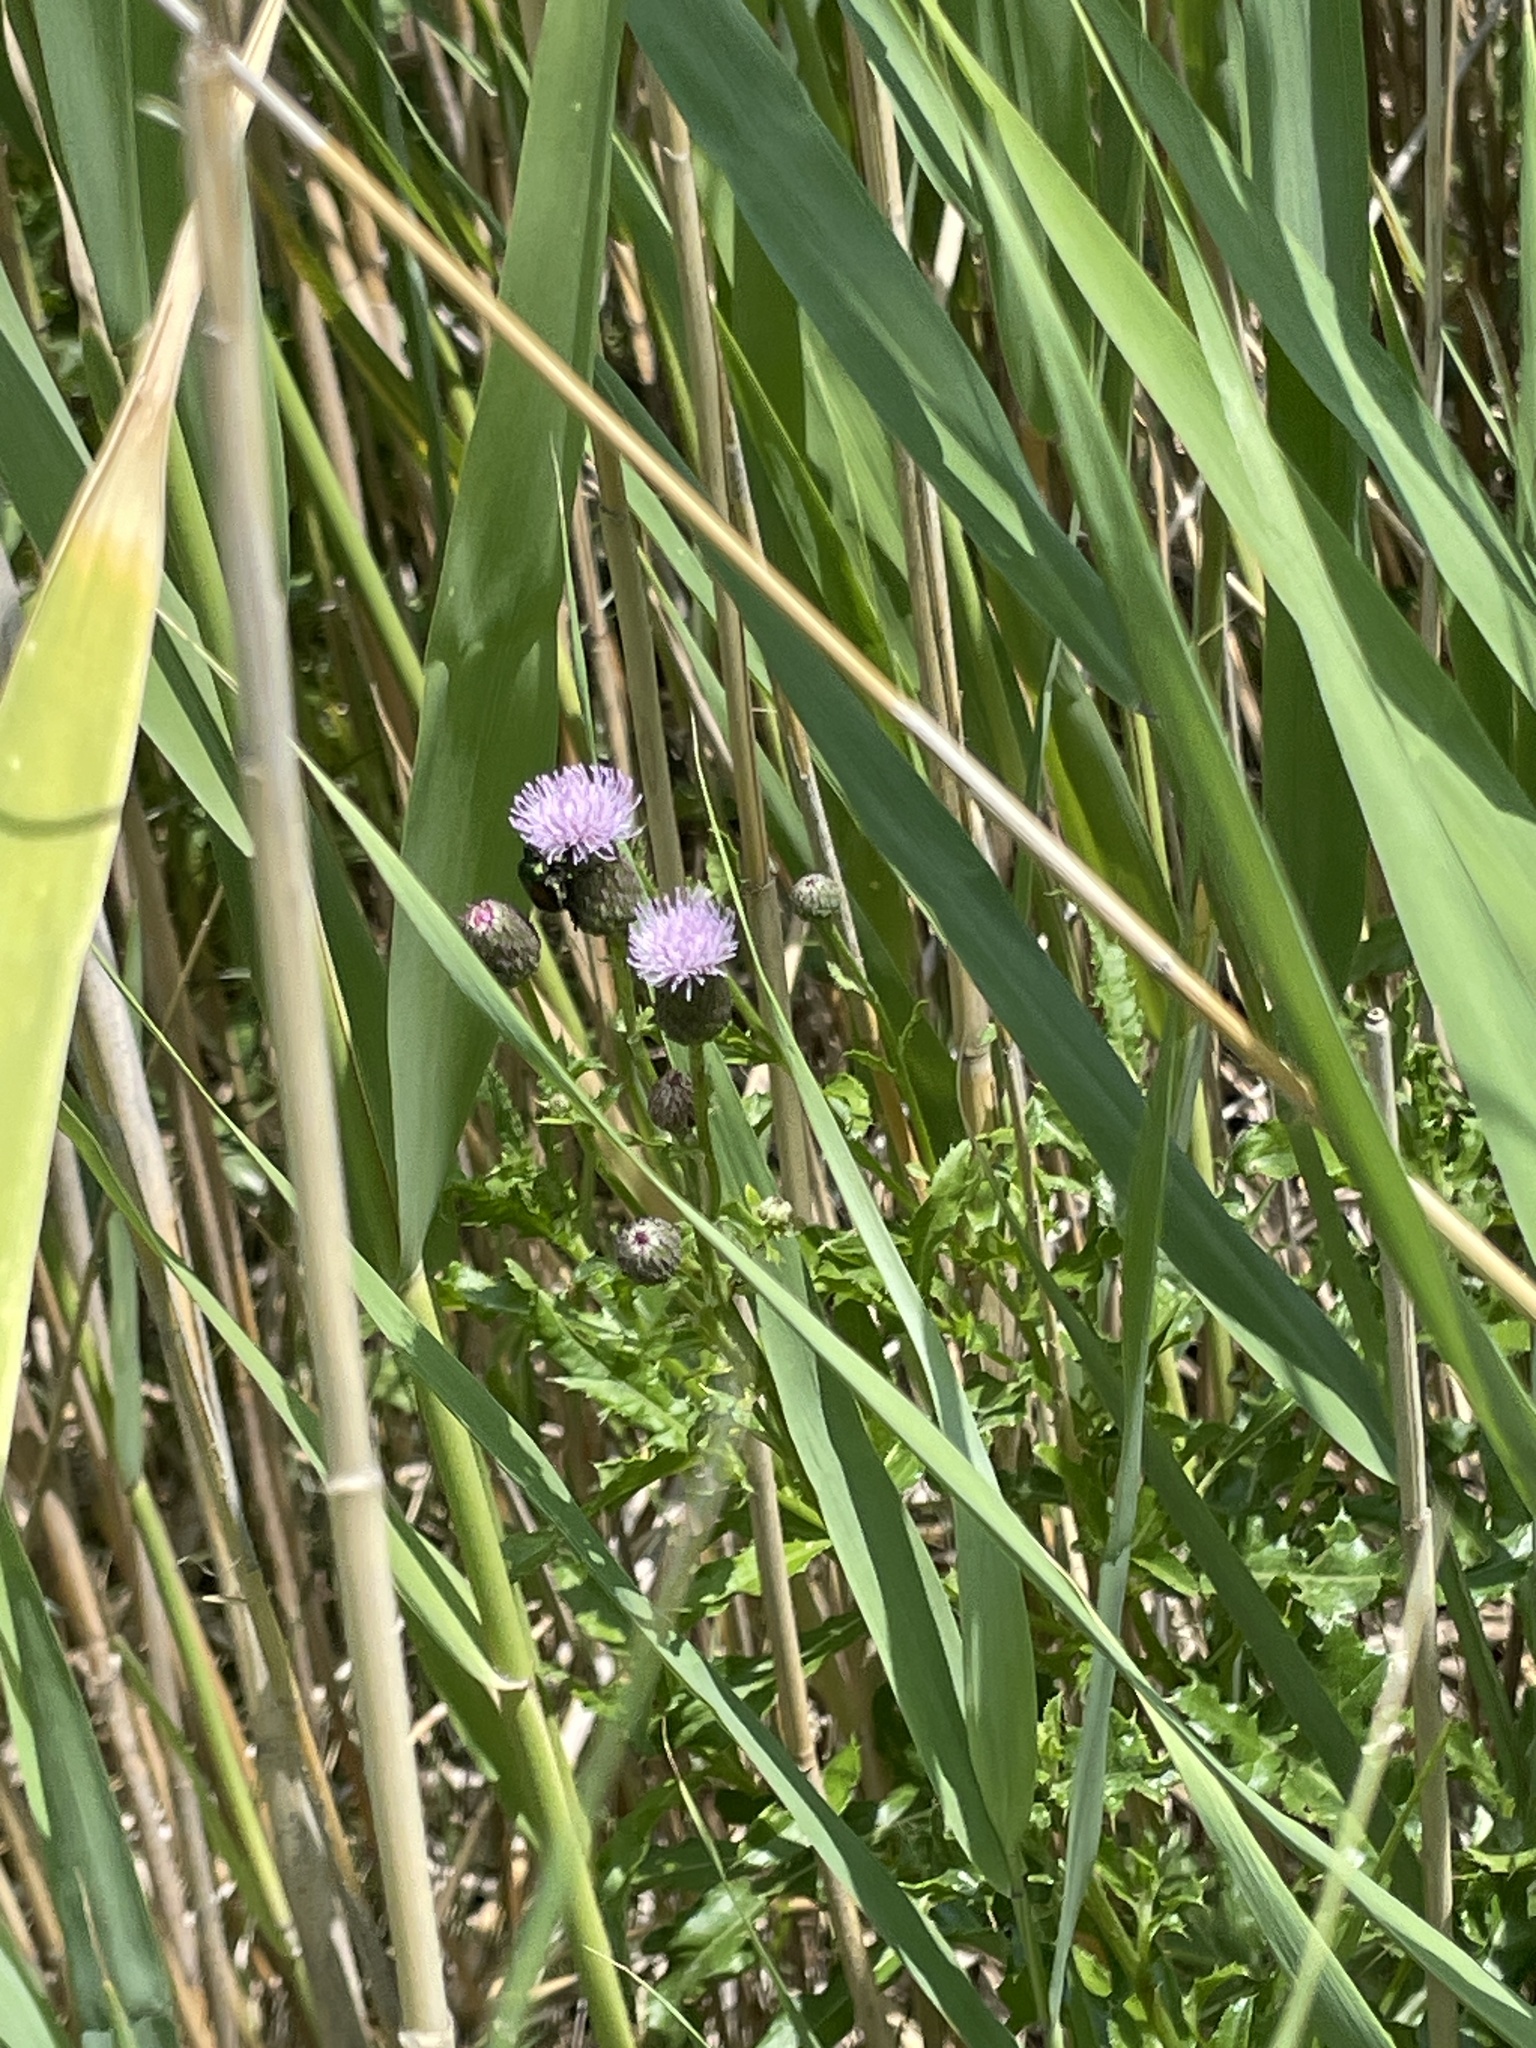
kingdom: Plantae
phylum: Tracheophyta
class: Magnoliopsida
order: Asterales
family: Asteraceae
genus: Cirsium
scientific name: Cirsium arvense
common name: Creeping thistle
